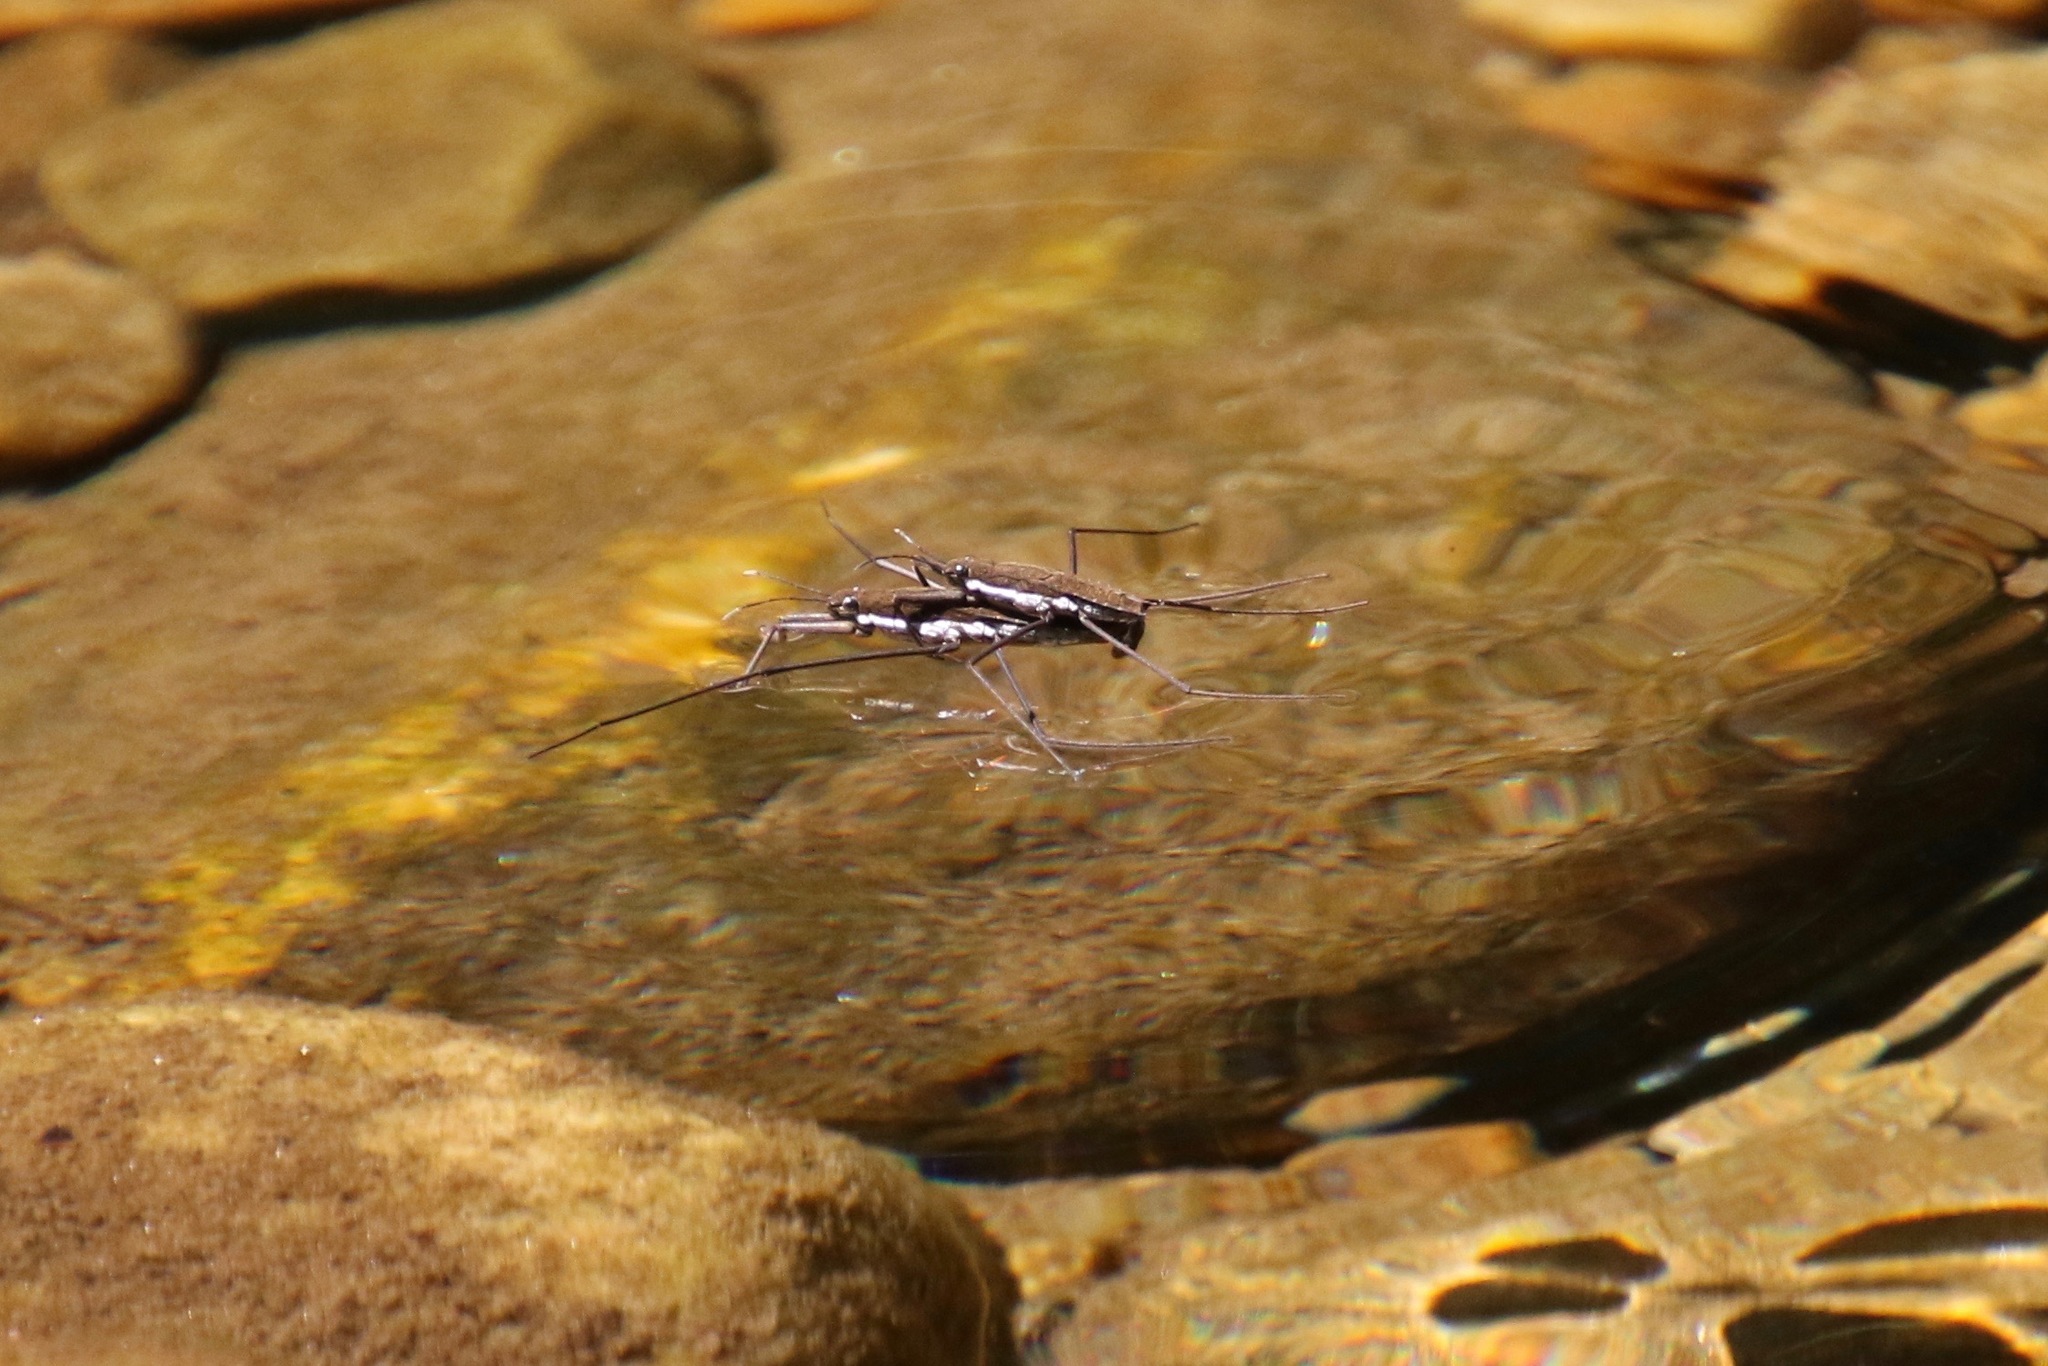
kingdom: Animalia
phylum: Arthropoda
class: Insecta
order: Hemiptera
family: Gerridae
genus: Aquarius
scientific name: Aquarius remigis
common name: Common water strider
